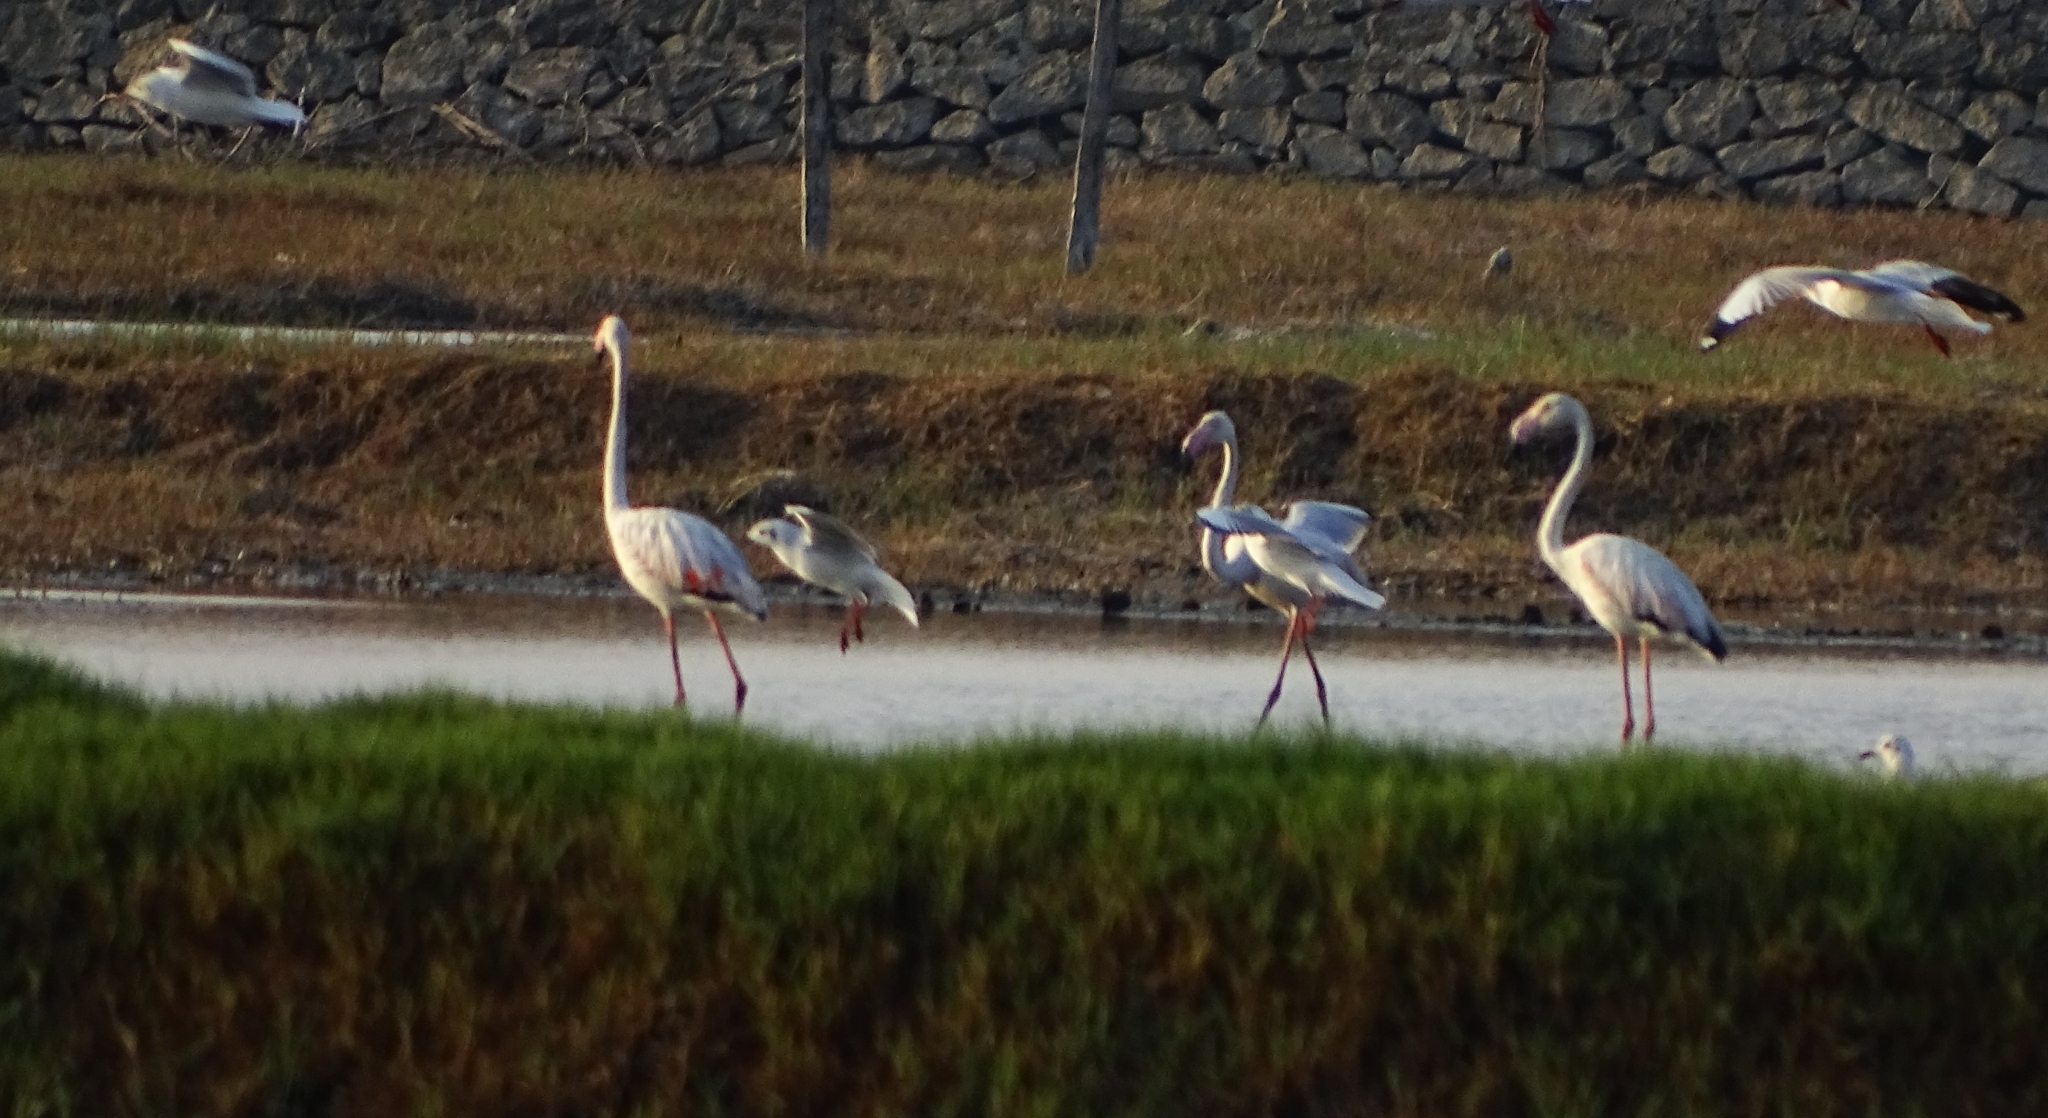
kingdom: Animalia
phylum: Chordata
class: Aves
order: Phoenicopteriformes
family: Phoenicopteridae
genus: Phoenicopterus
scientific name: Phoenicopterus roseus
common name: Greater flamingo
